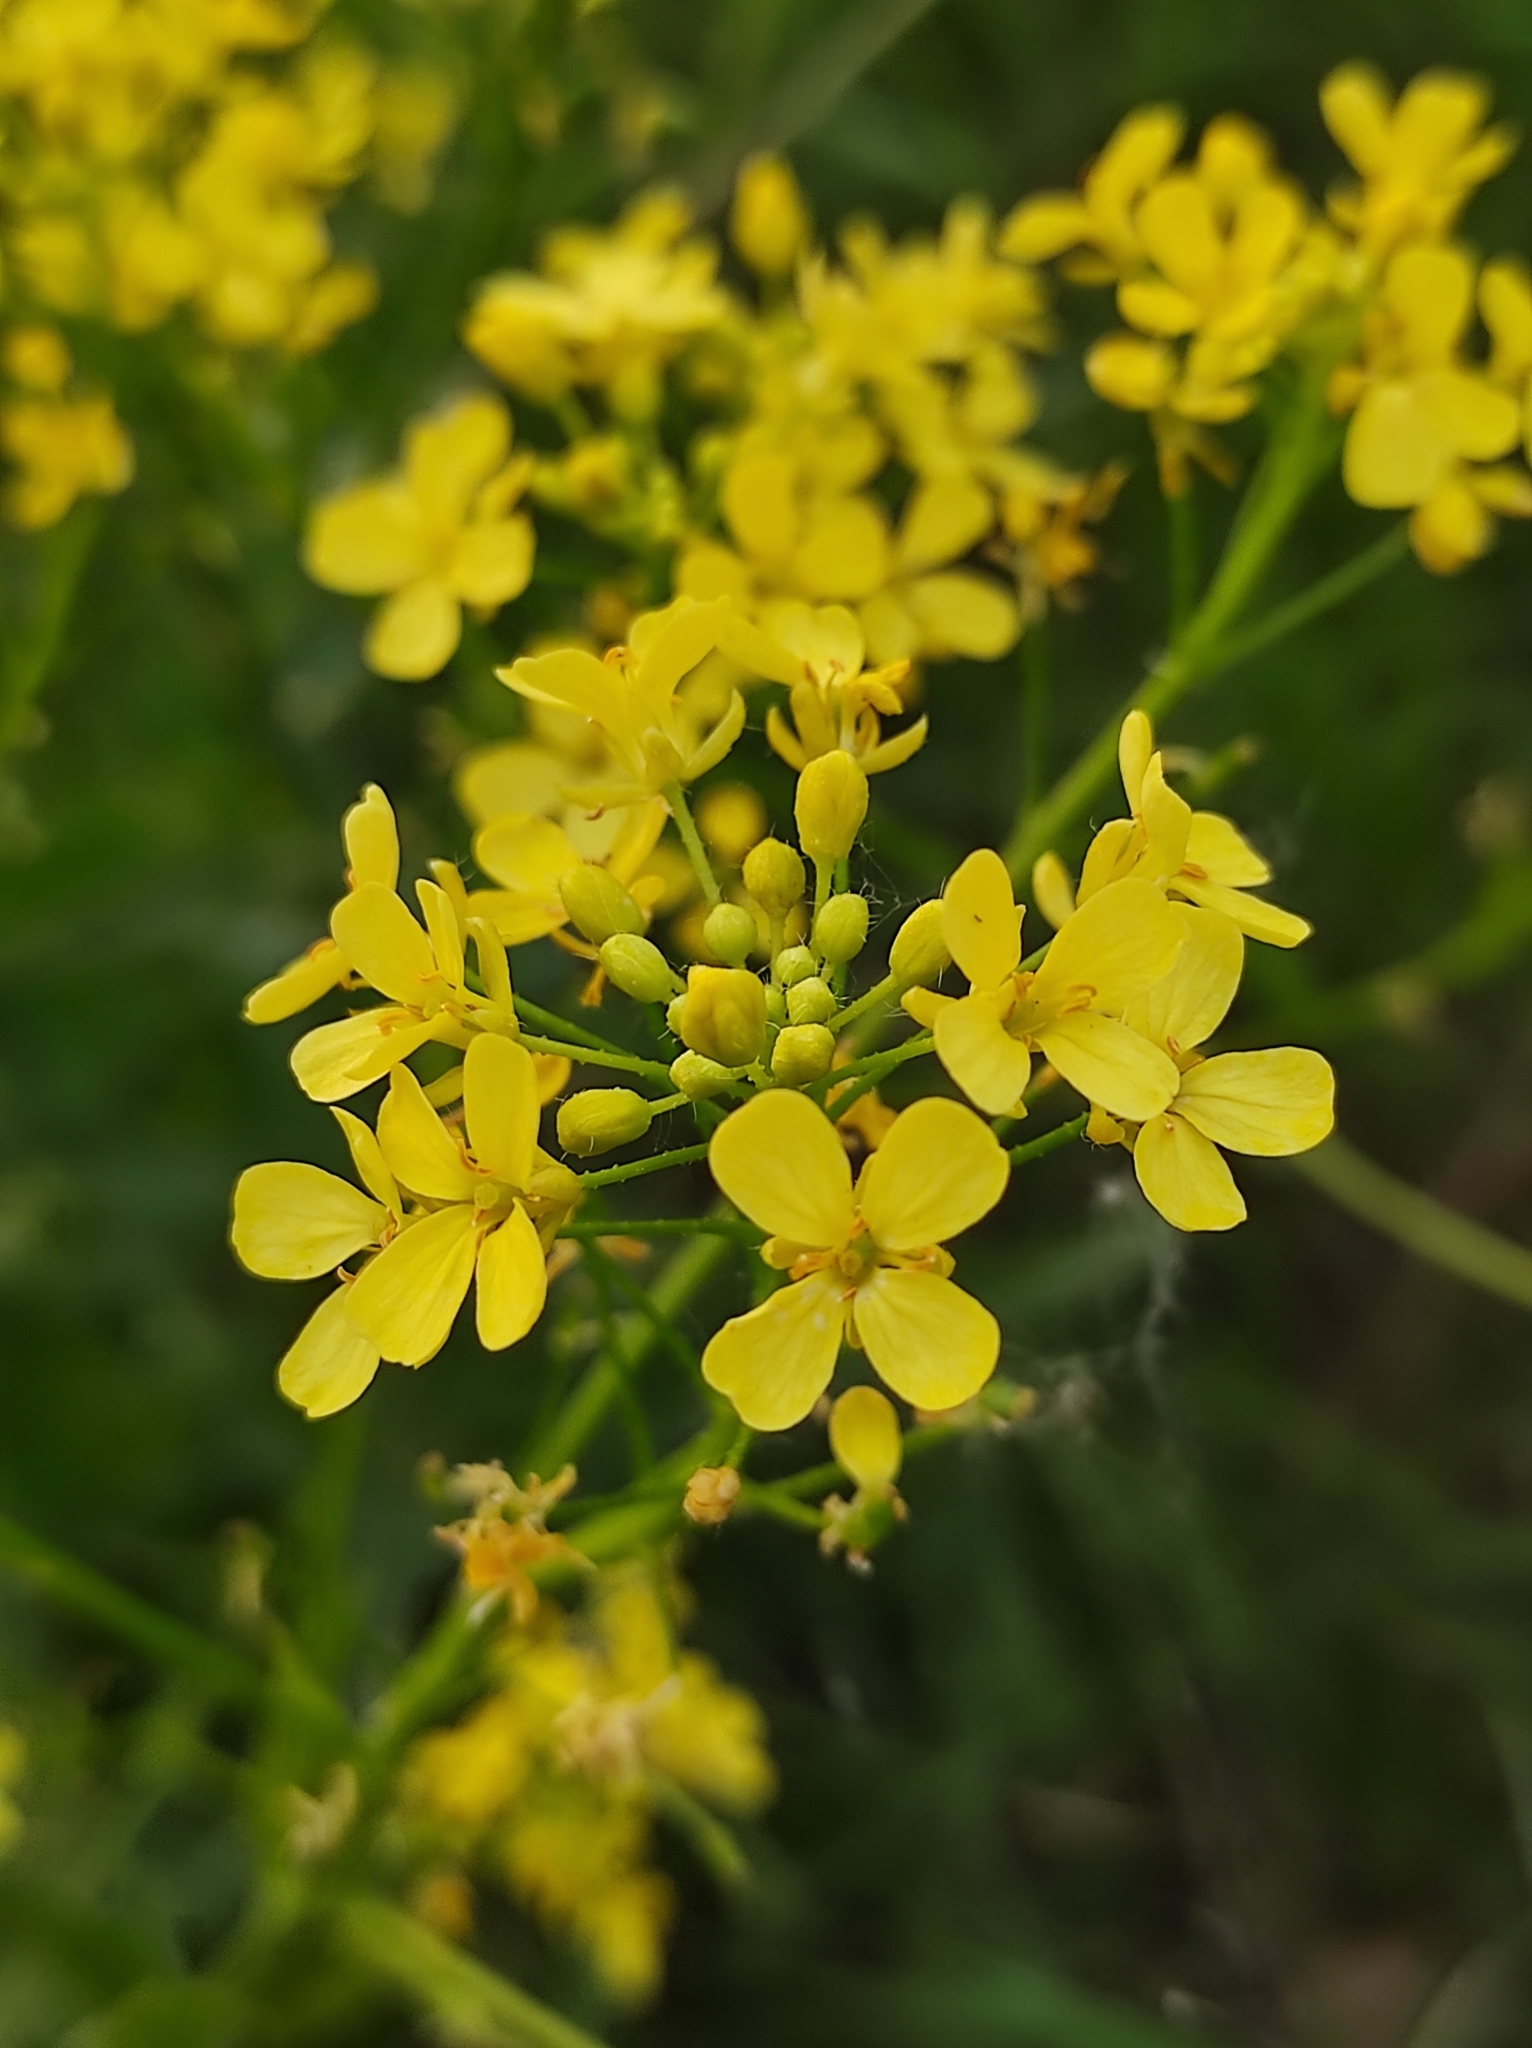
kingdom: Plantae
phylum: Tracheophyta
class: Magnoliopsida
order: Brassicales
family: Brassicaceae
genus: Bunias
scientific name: Bunias orientalis
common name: Warty-cabbage
